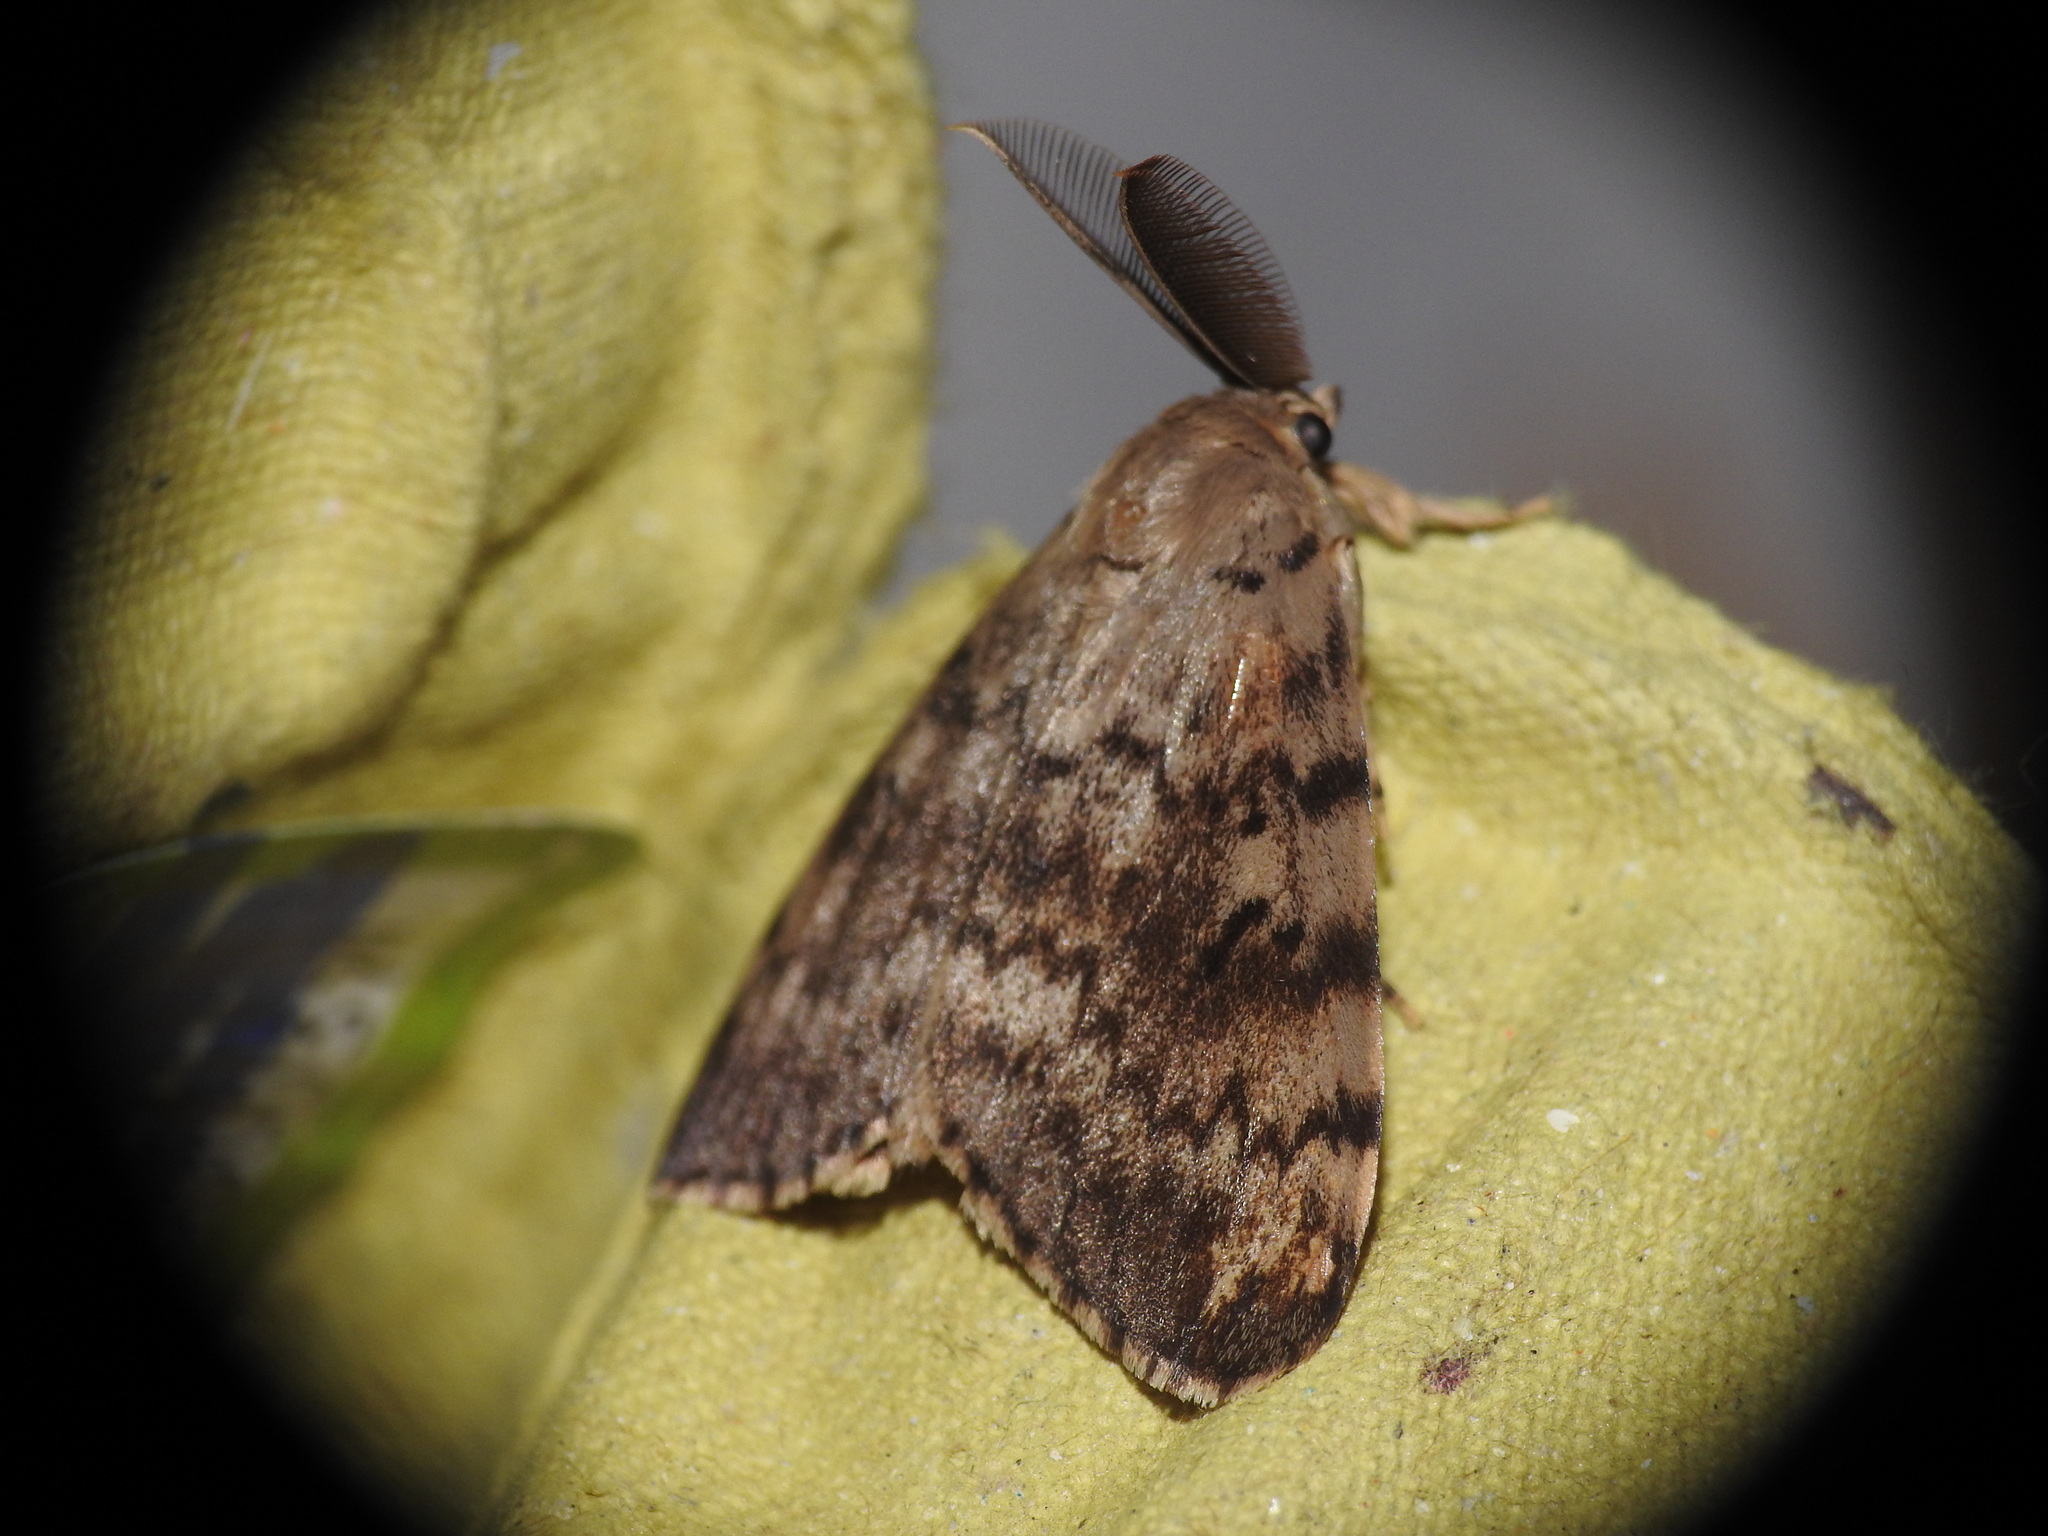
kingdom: Animalia
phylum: Arthropoda
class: Insecta
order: Lepidoptera
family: Erebidae
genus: Lymantria
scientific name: Lymantria dispar
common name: Gypsy moth
